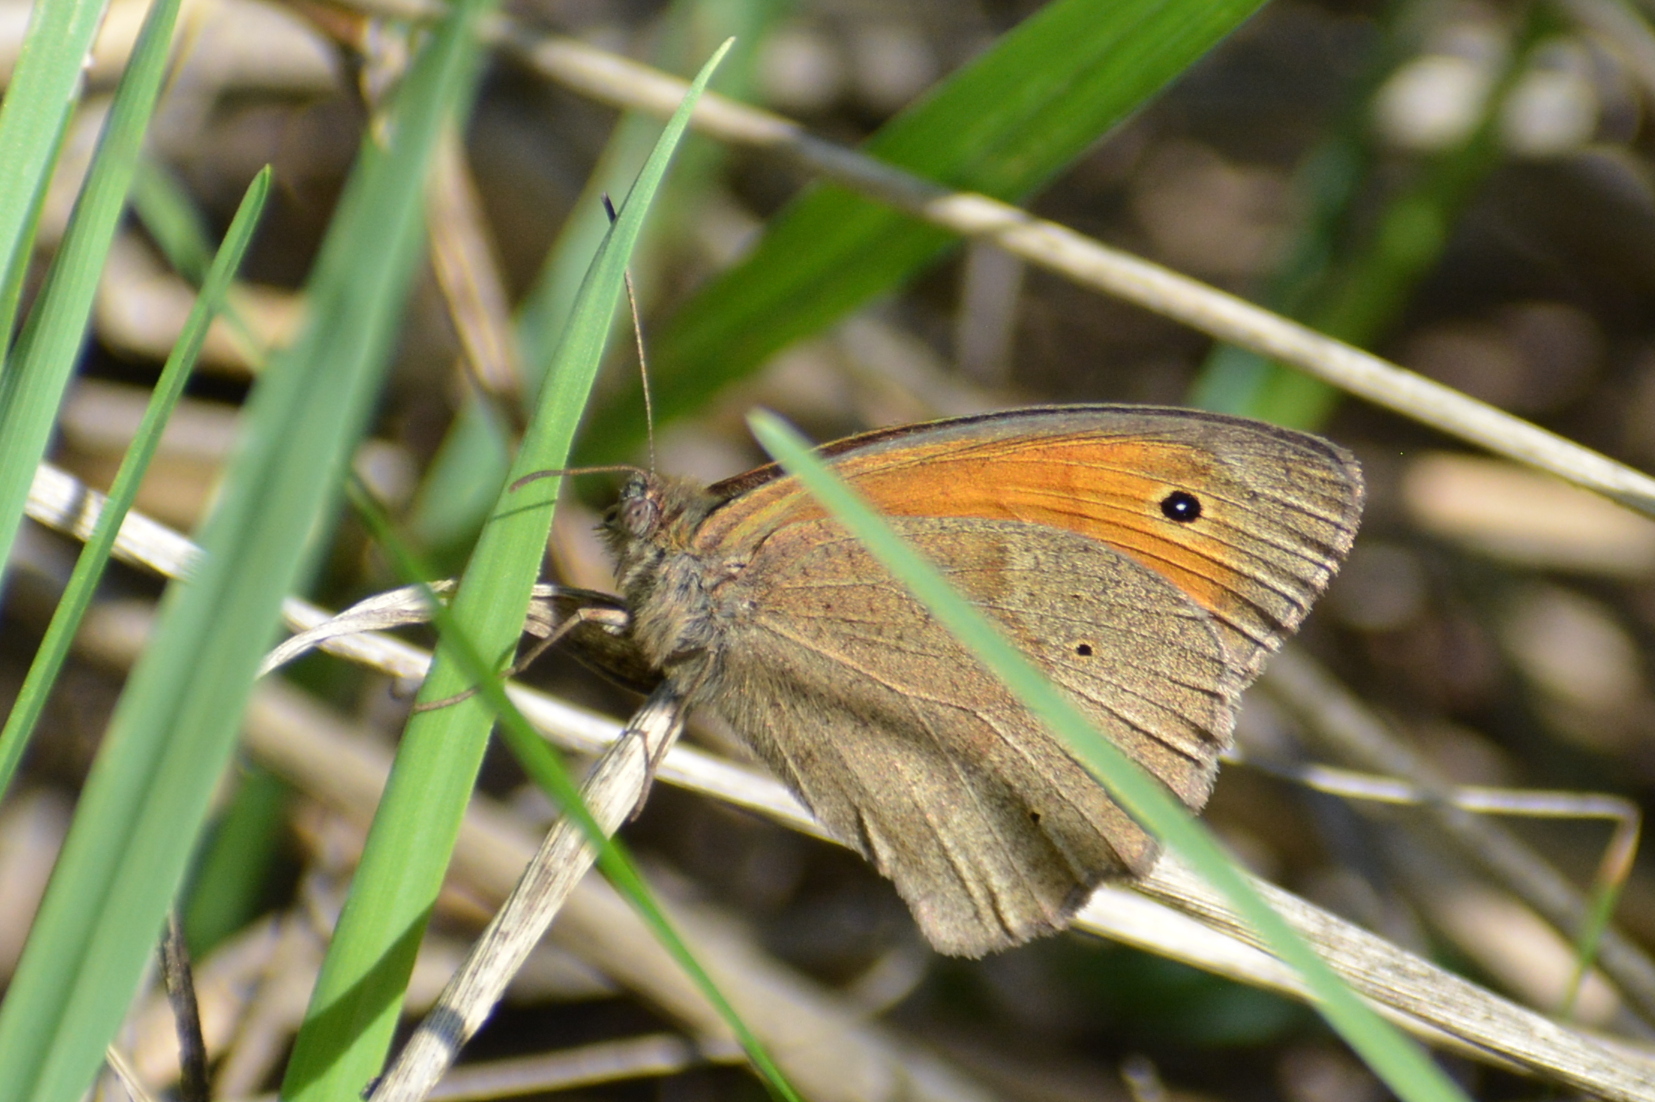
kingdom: Animalia
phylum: Arthropoda
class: Insecta
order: Lepidoptera
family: Nymphalidae
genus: Maniola
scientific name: Maniola jurtina
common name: Meadow brown
